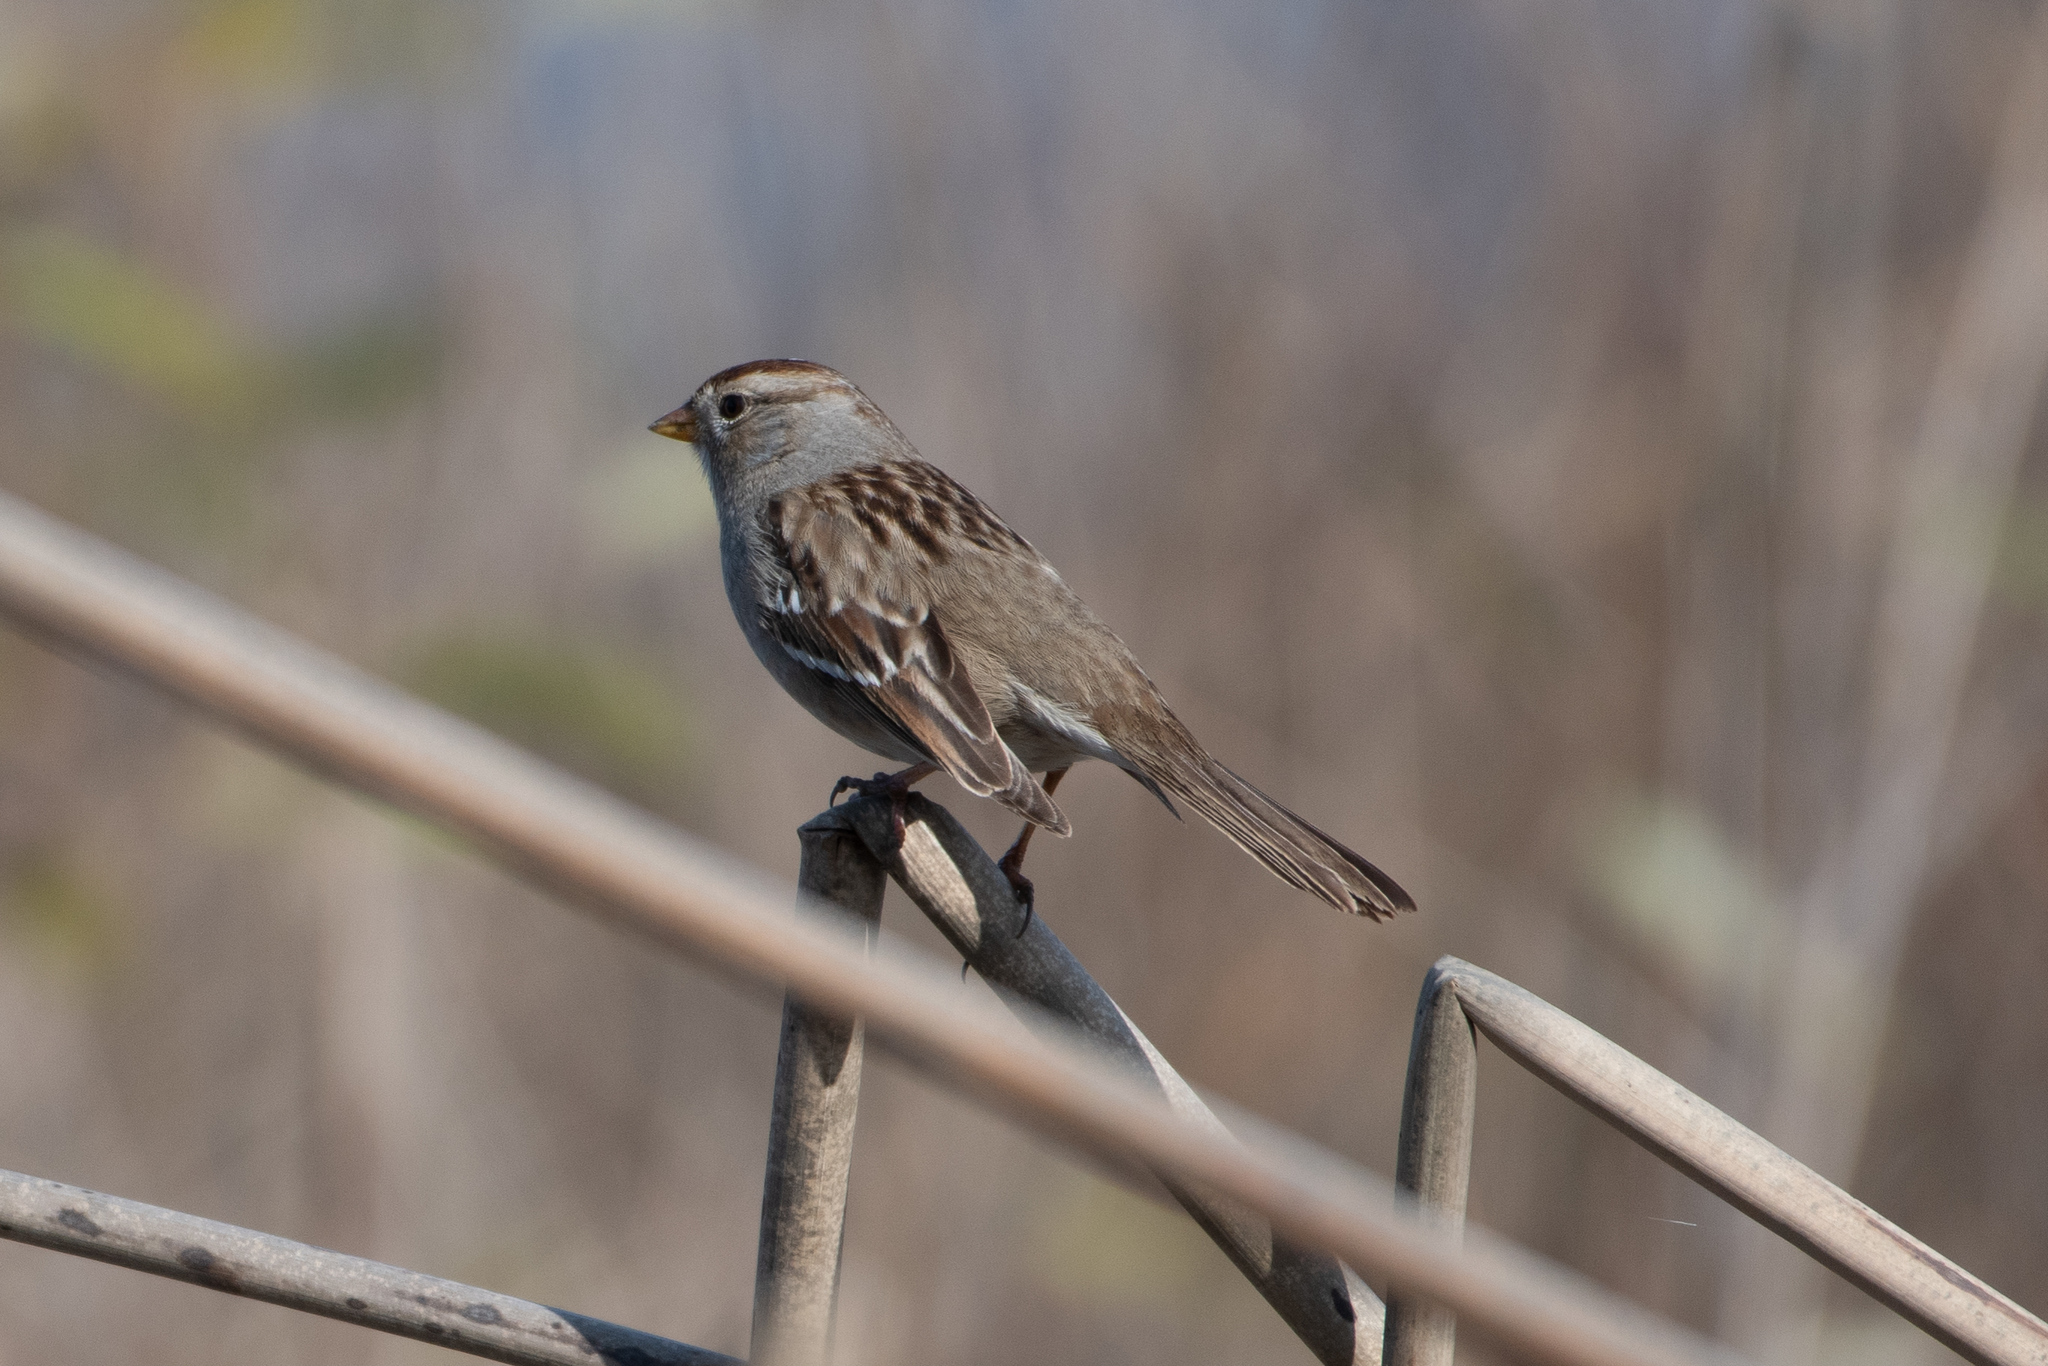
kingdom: Animalia
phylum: Chordata
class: Aves
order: Passeriformes
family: Passerellidae
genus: Zonotrichia
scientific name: Zonotrichia leucophrys
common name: White-crowned sparrow
